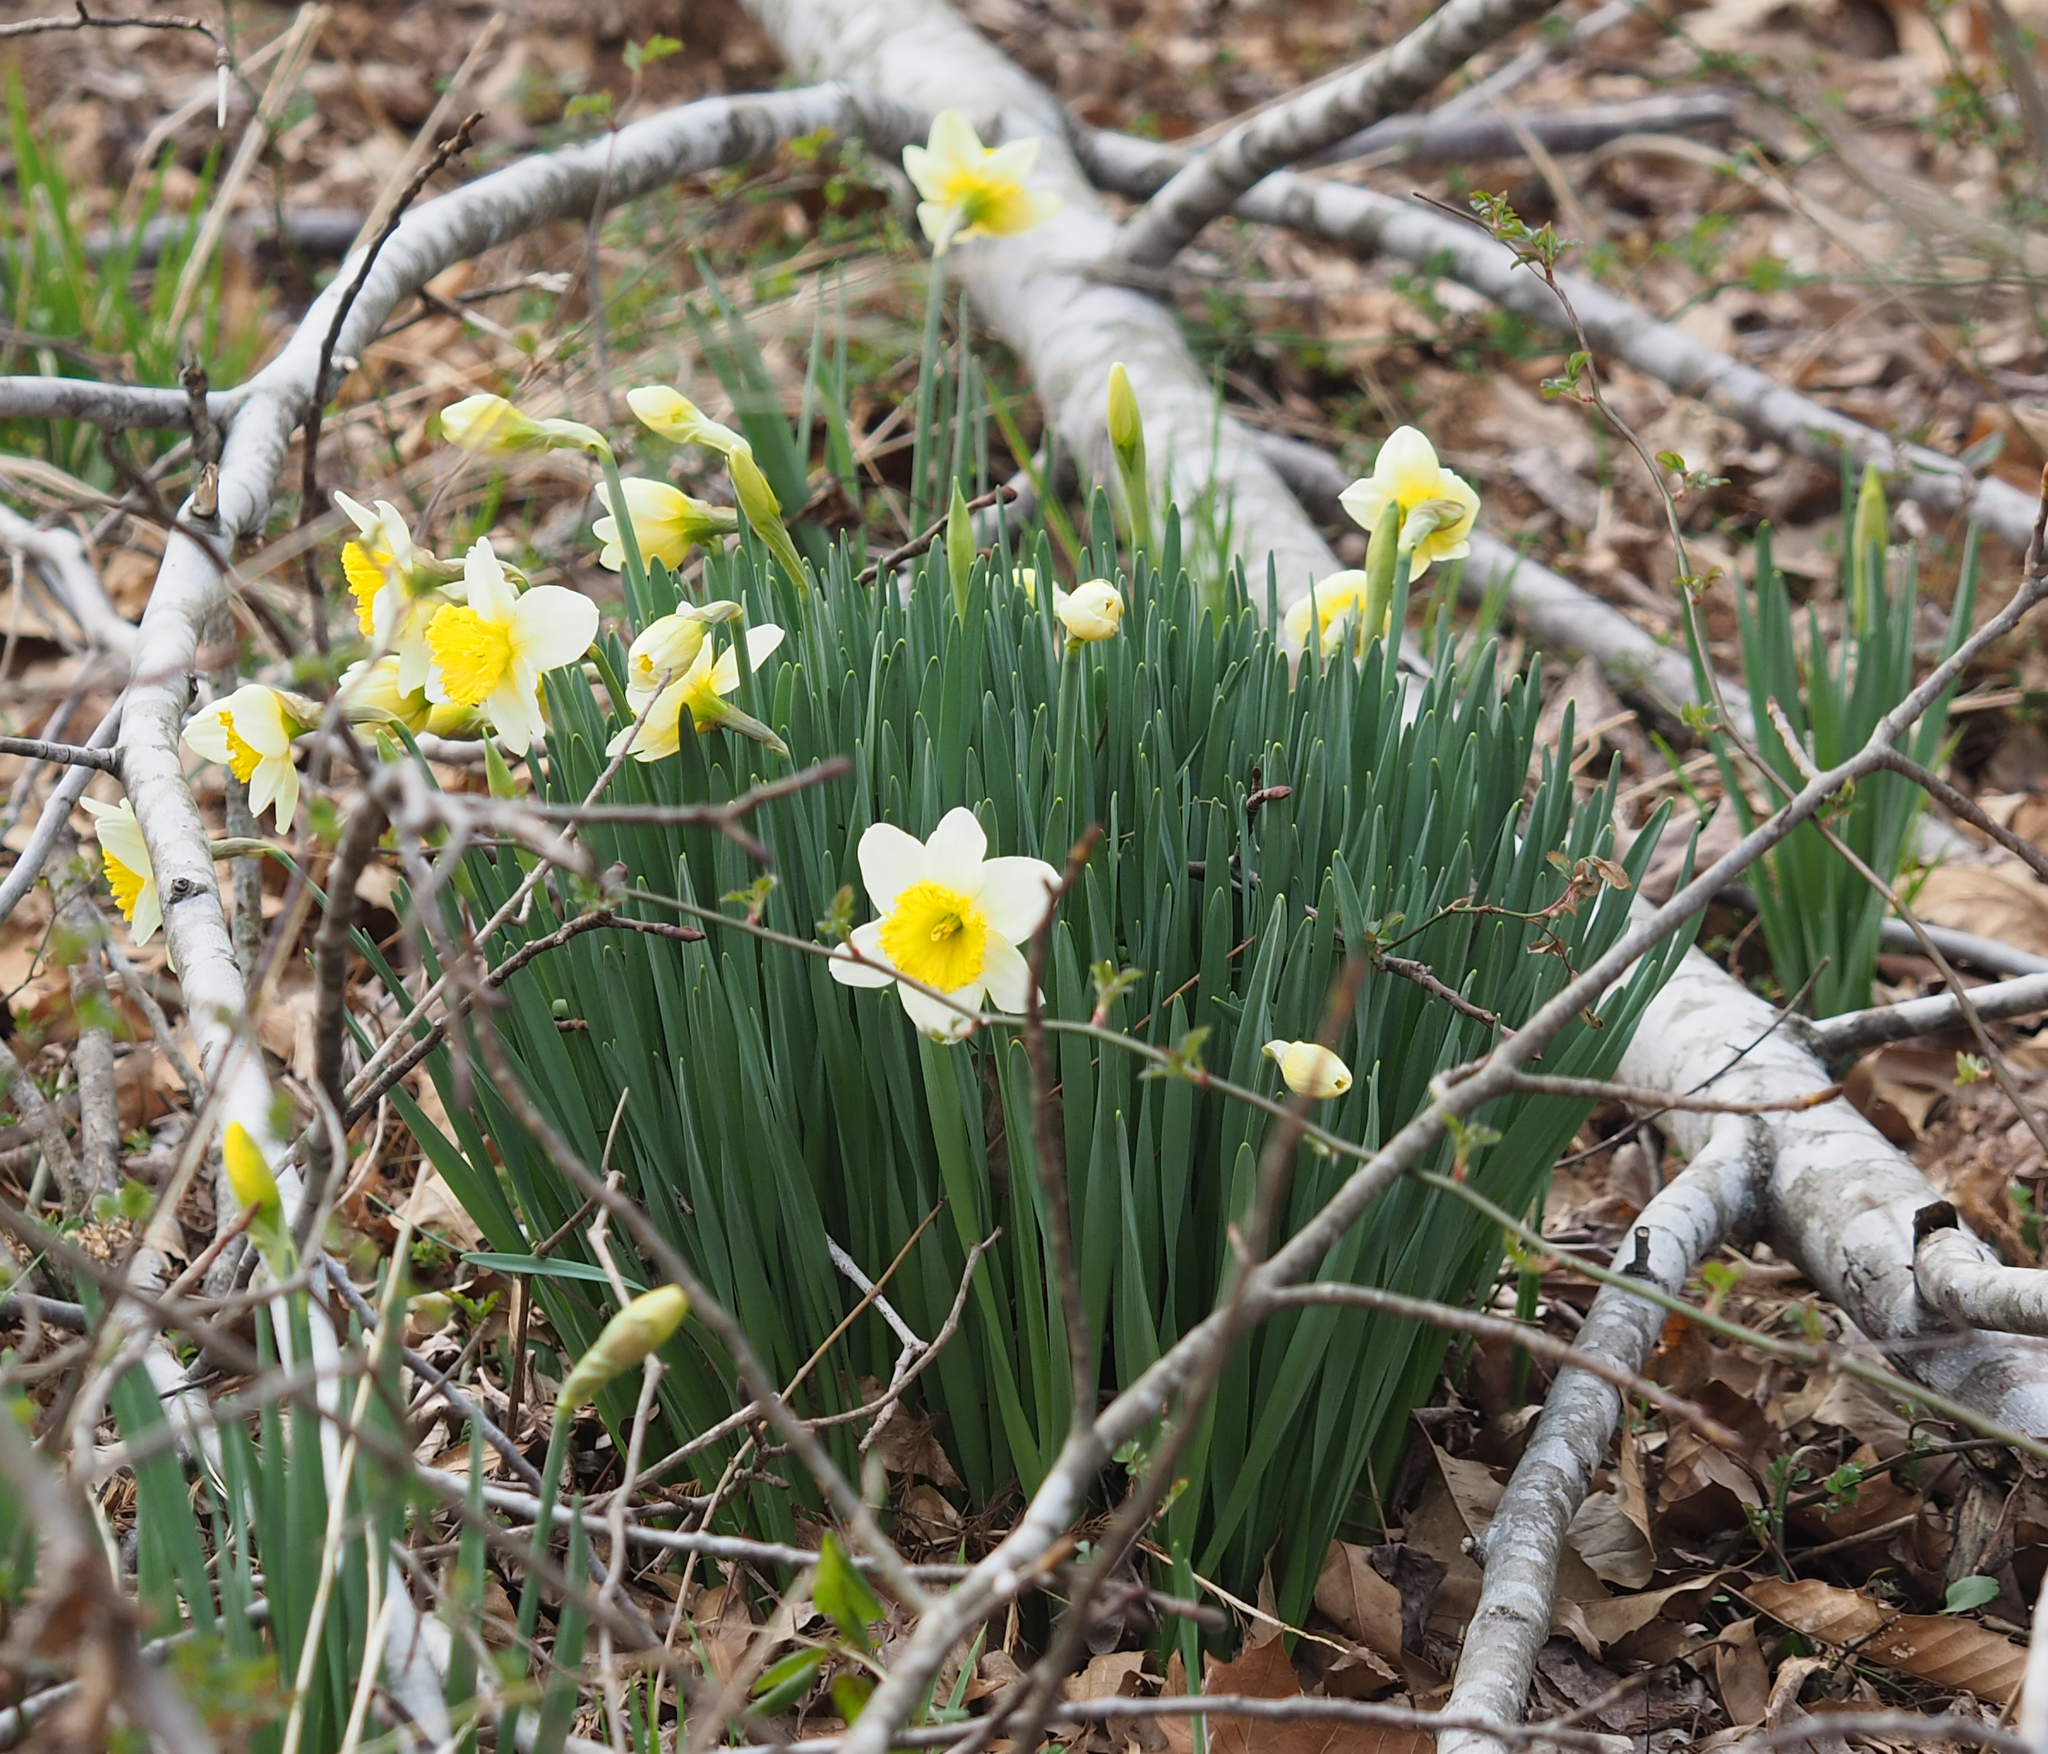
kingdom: Plantae
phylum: Tracheophyta
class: Liliopsida
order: Asparagales
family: Amaryllidaceae
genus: Narcissus
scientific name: Narcissus incomparabilis
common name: Nonesuch daffodil
